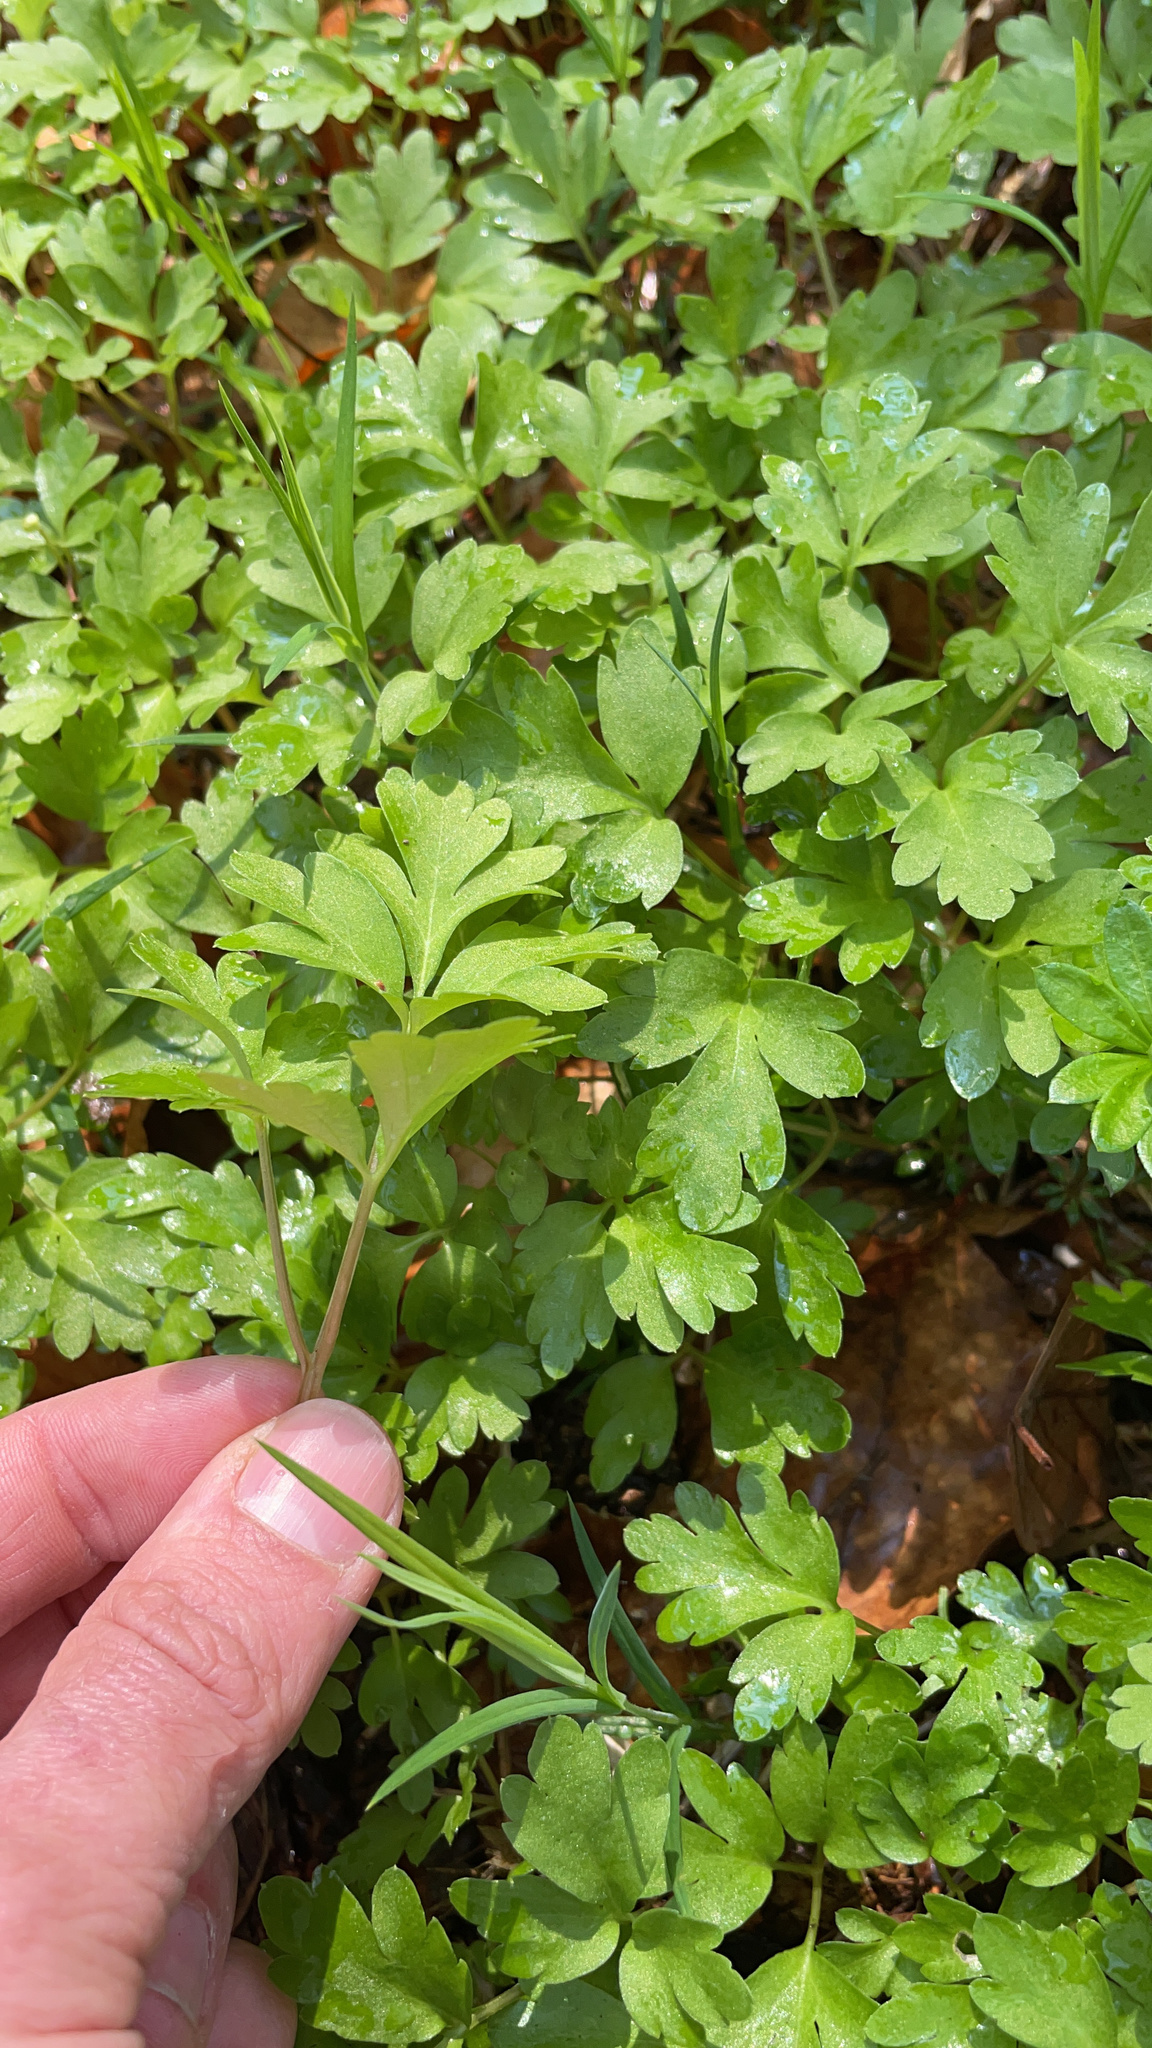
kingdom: Plantae
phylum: Tracheophyta
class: Magnoliopsida
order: Dipsacales
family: Viburnaceae
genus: Adoxa
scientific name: Adoxa moschatellina
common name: Moschatel
